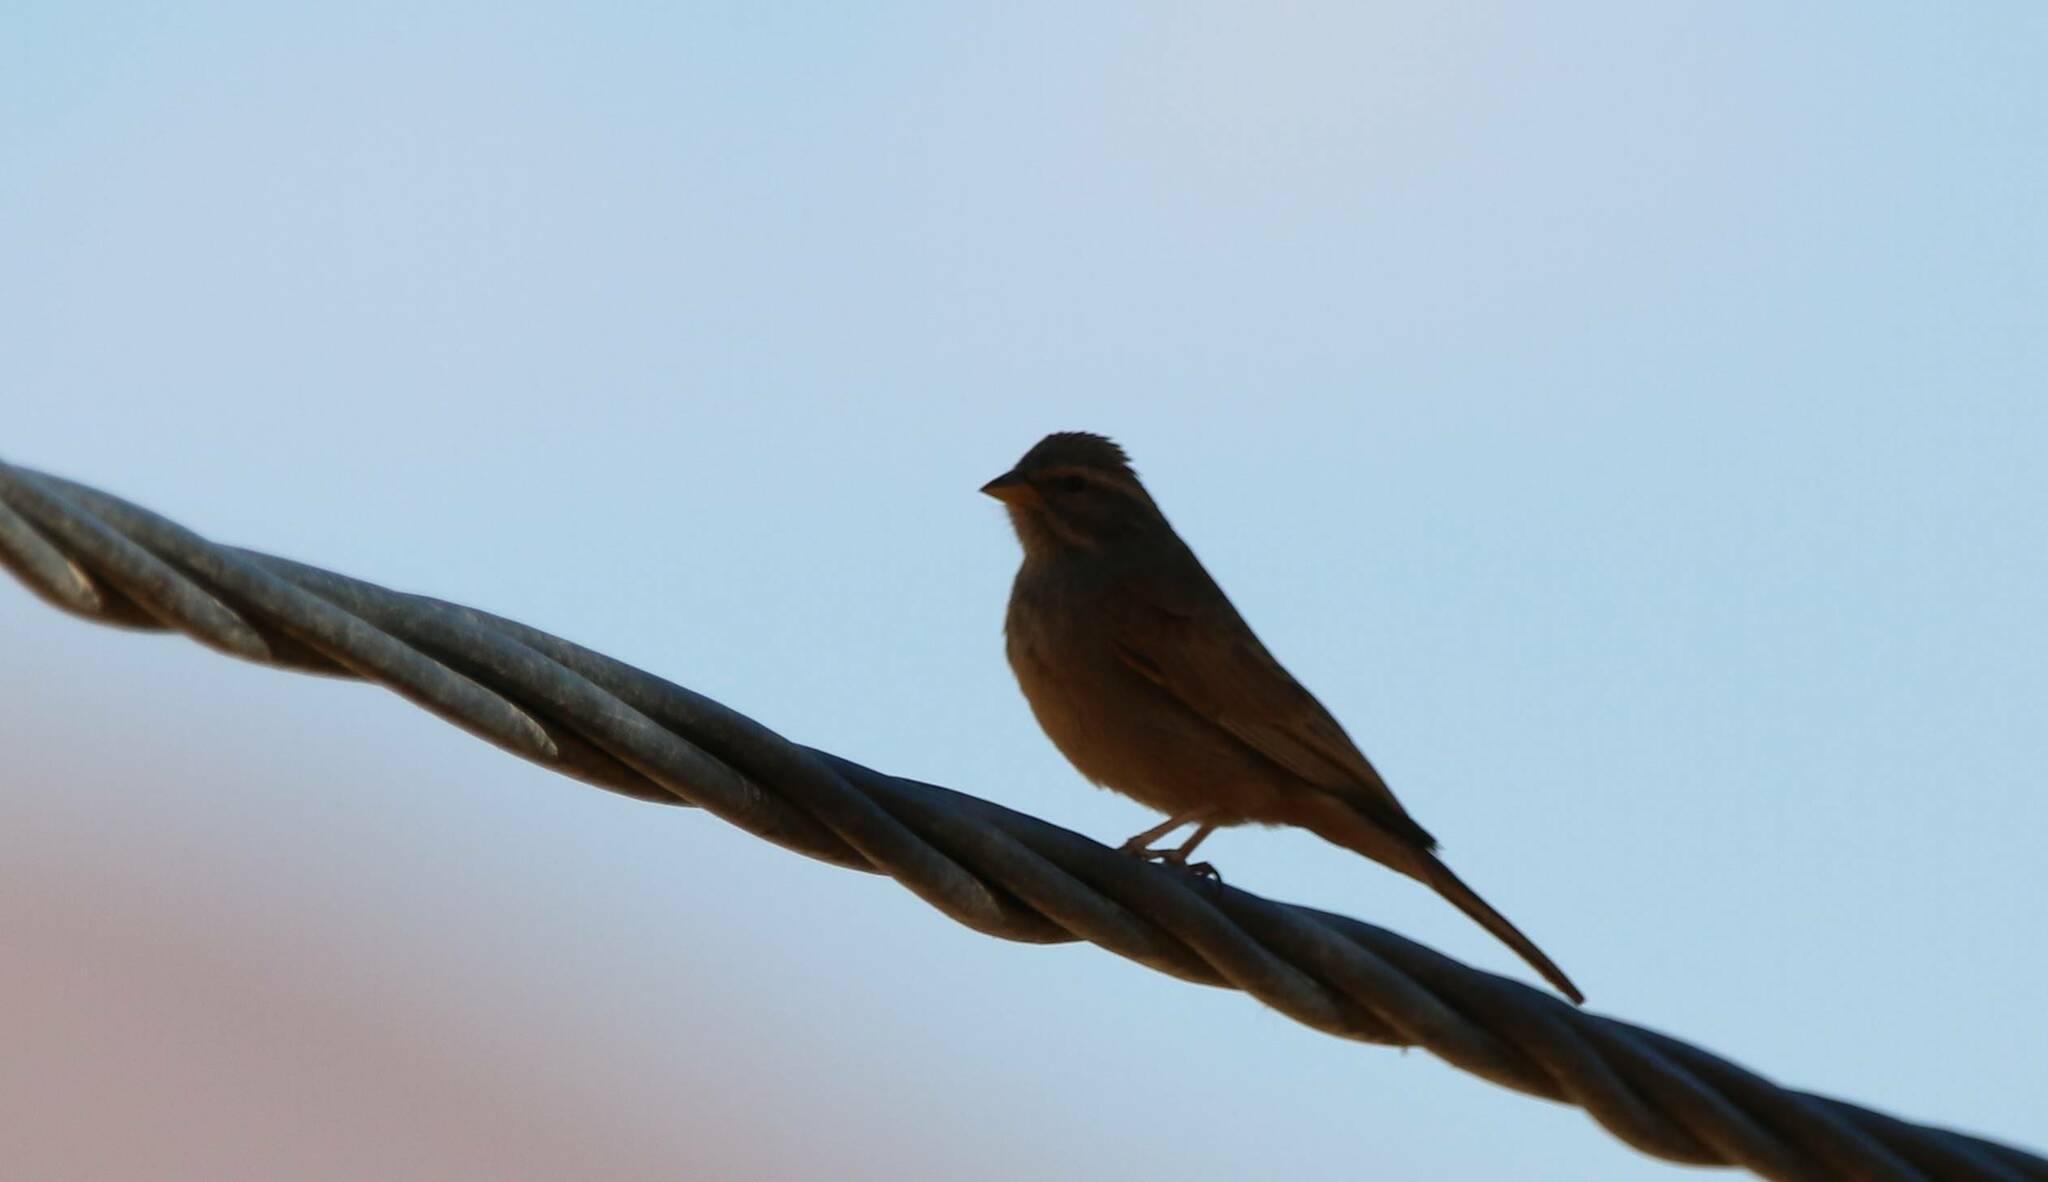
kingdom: Animalia
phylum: Chordata
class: Aves
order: Passeriformes
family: Emberizidae
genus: Emberiza
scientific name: Emberiza sahari
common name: House bunting
